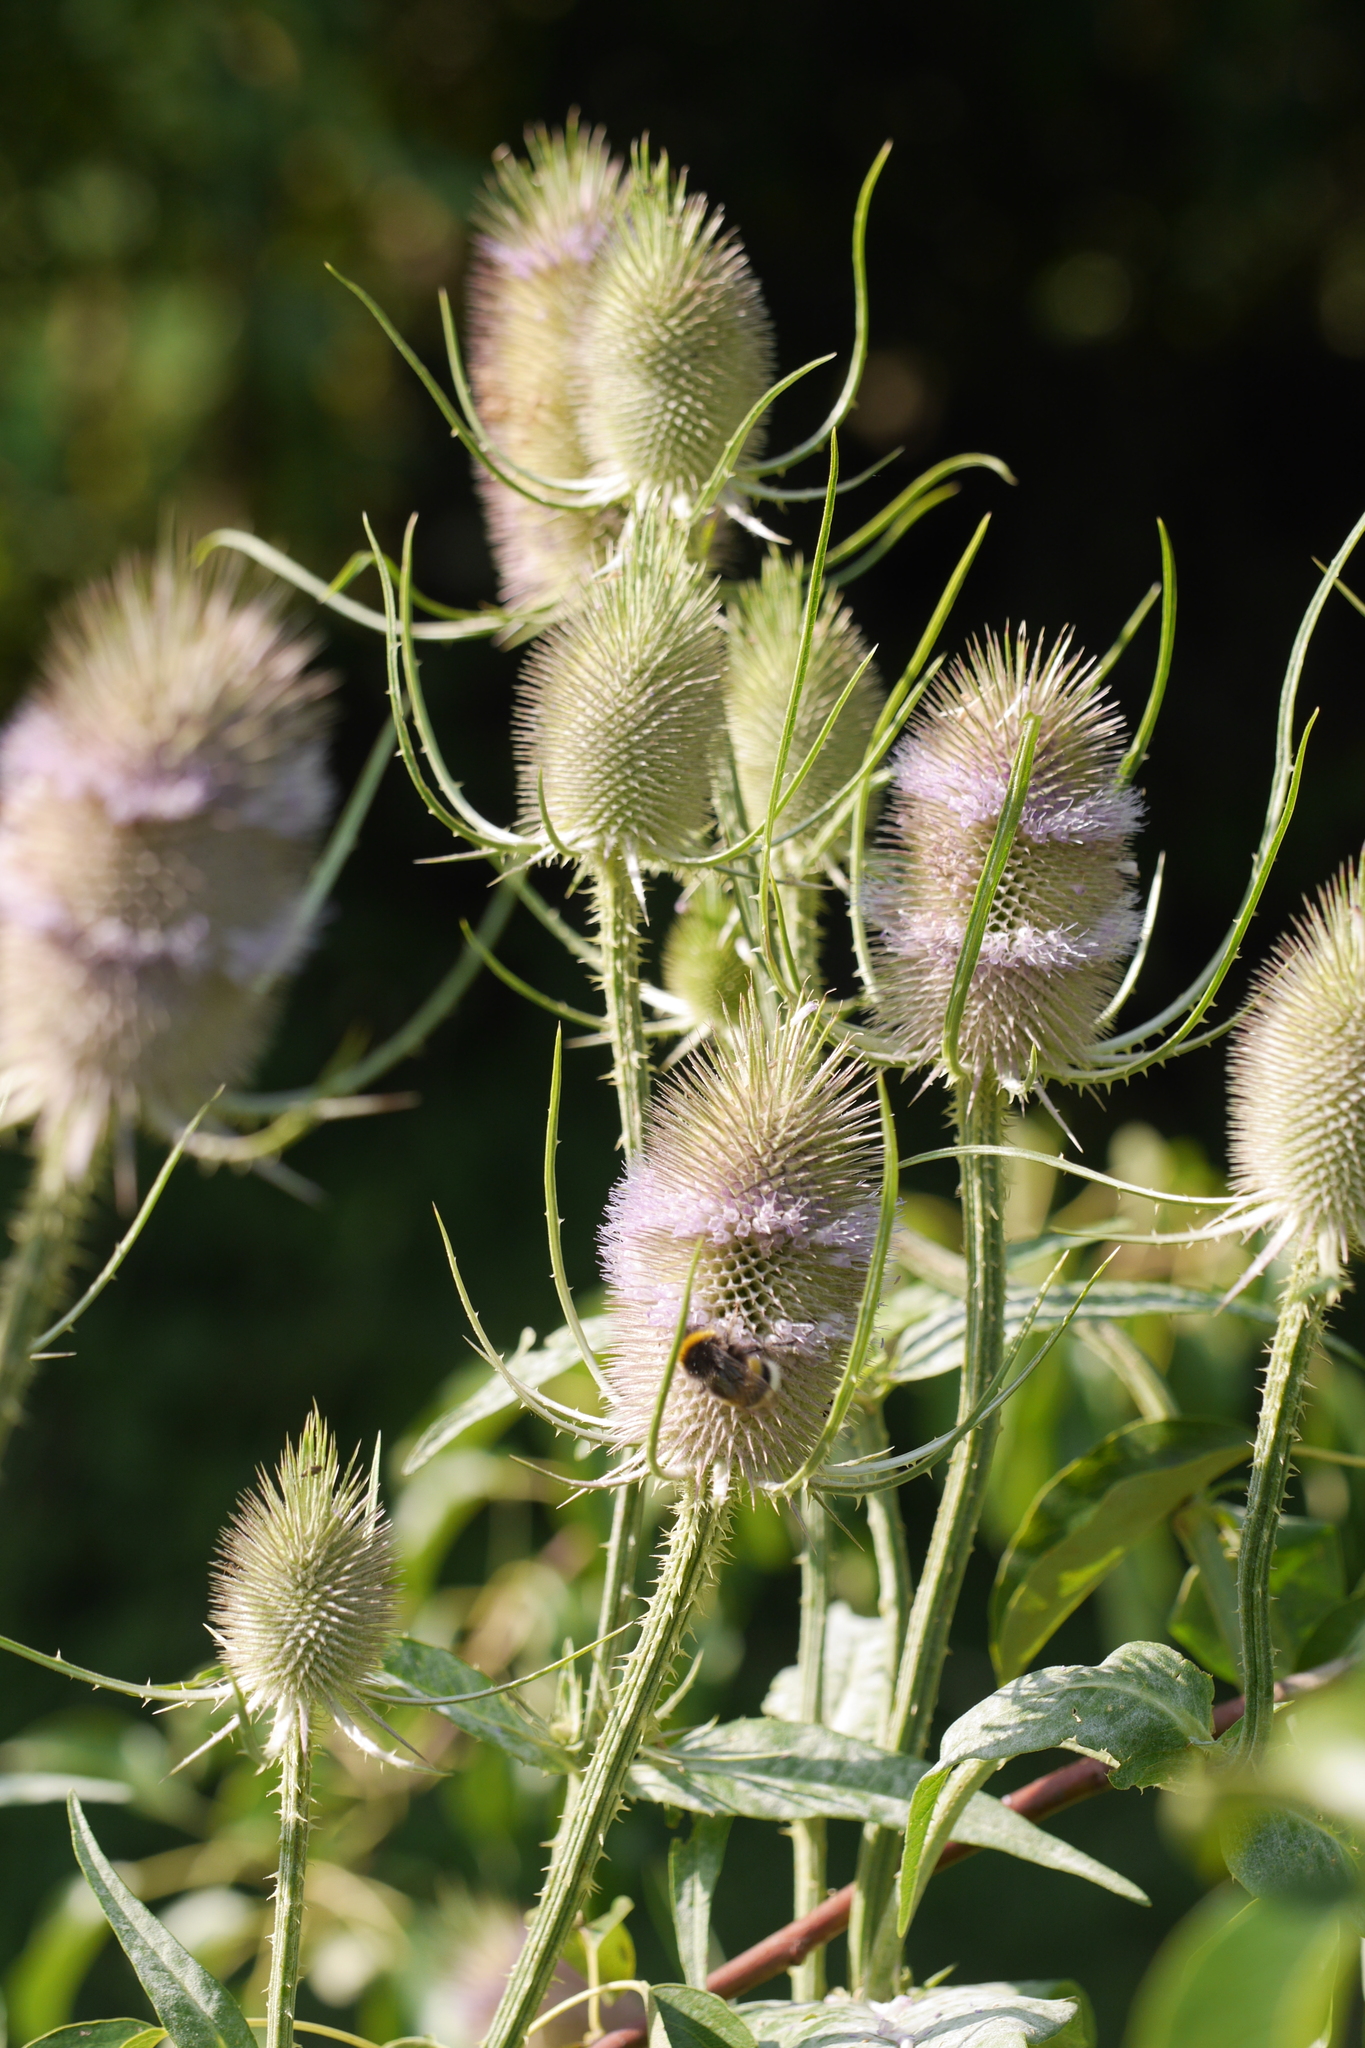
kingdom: Plantae
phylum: Tracheophyta
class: Magnoliopsida
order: Dipsacales
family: Caprifoliaceae
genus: Dipsacus
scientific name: Dipsacus fullonum
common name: Teasel
